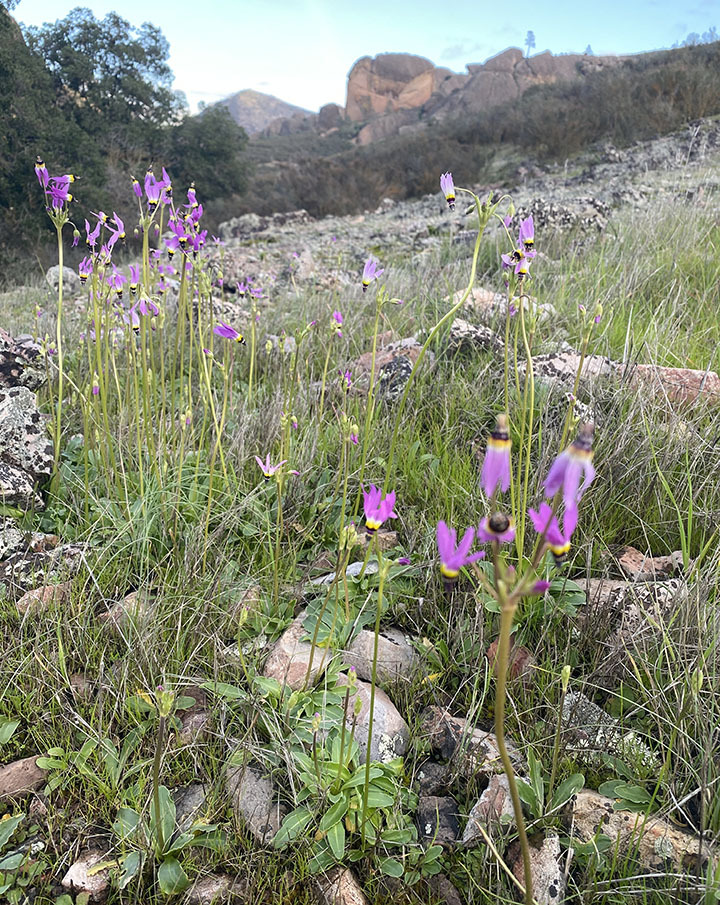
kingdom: Plantae
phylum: Tracheophyta
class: Magnoliopsida
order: Ericales
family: Primulaceae
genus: Dodecatheon
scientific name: Dodecatheon clevelandii
